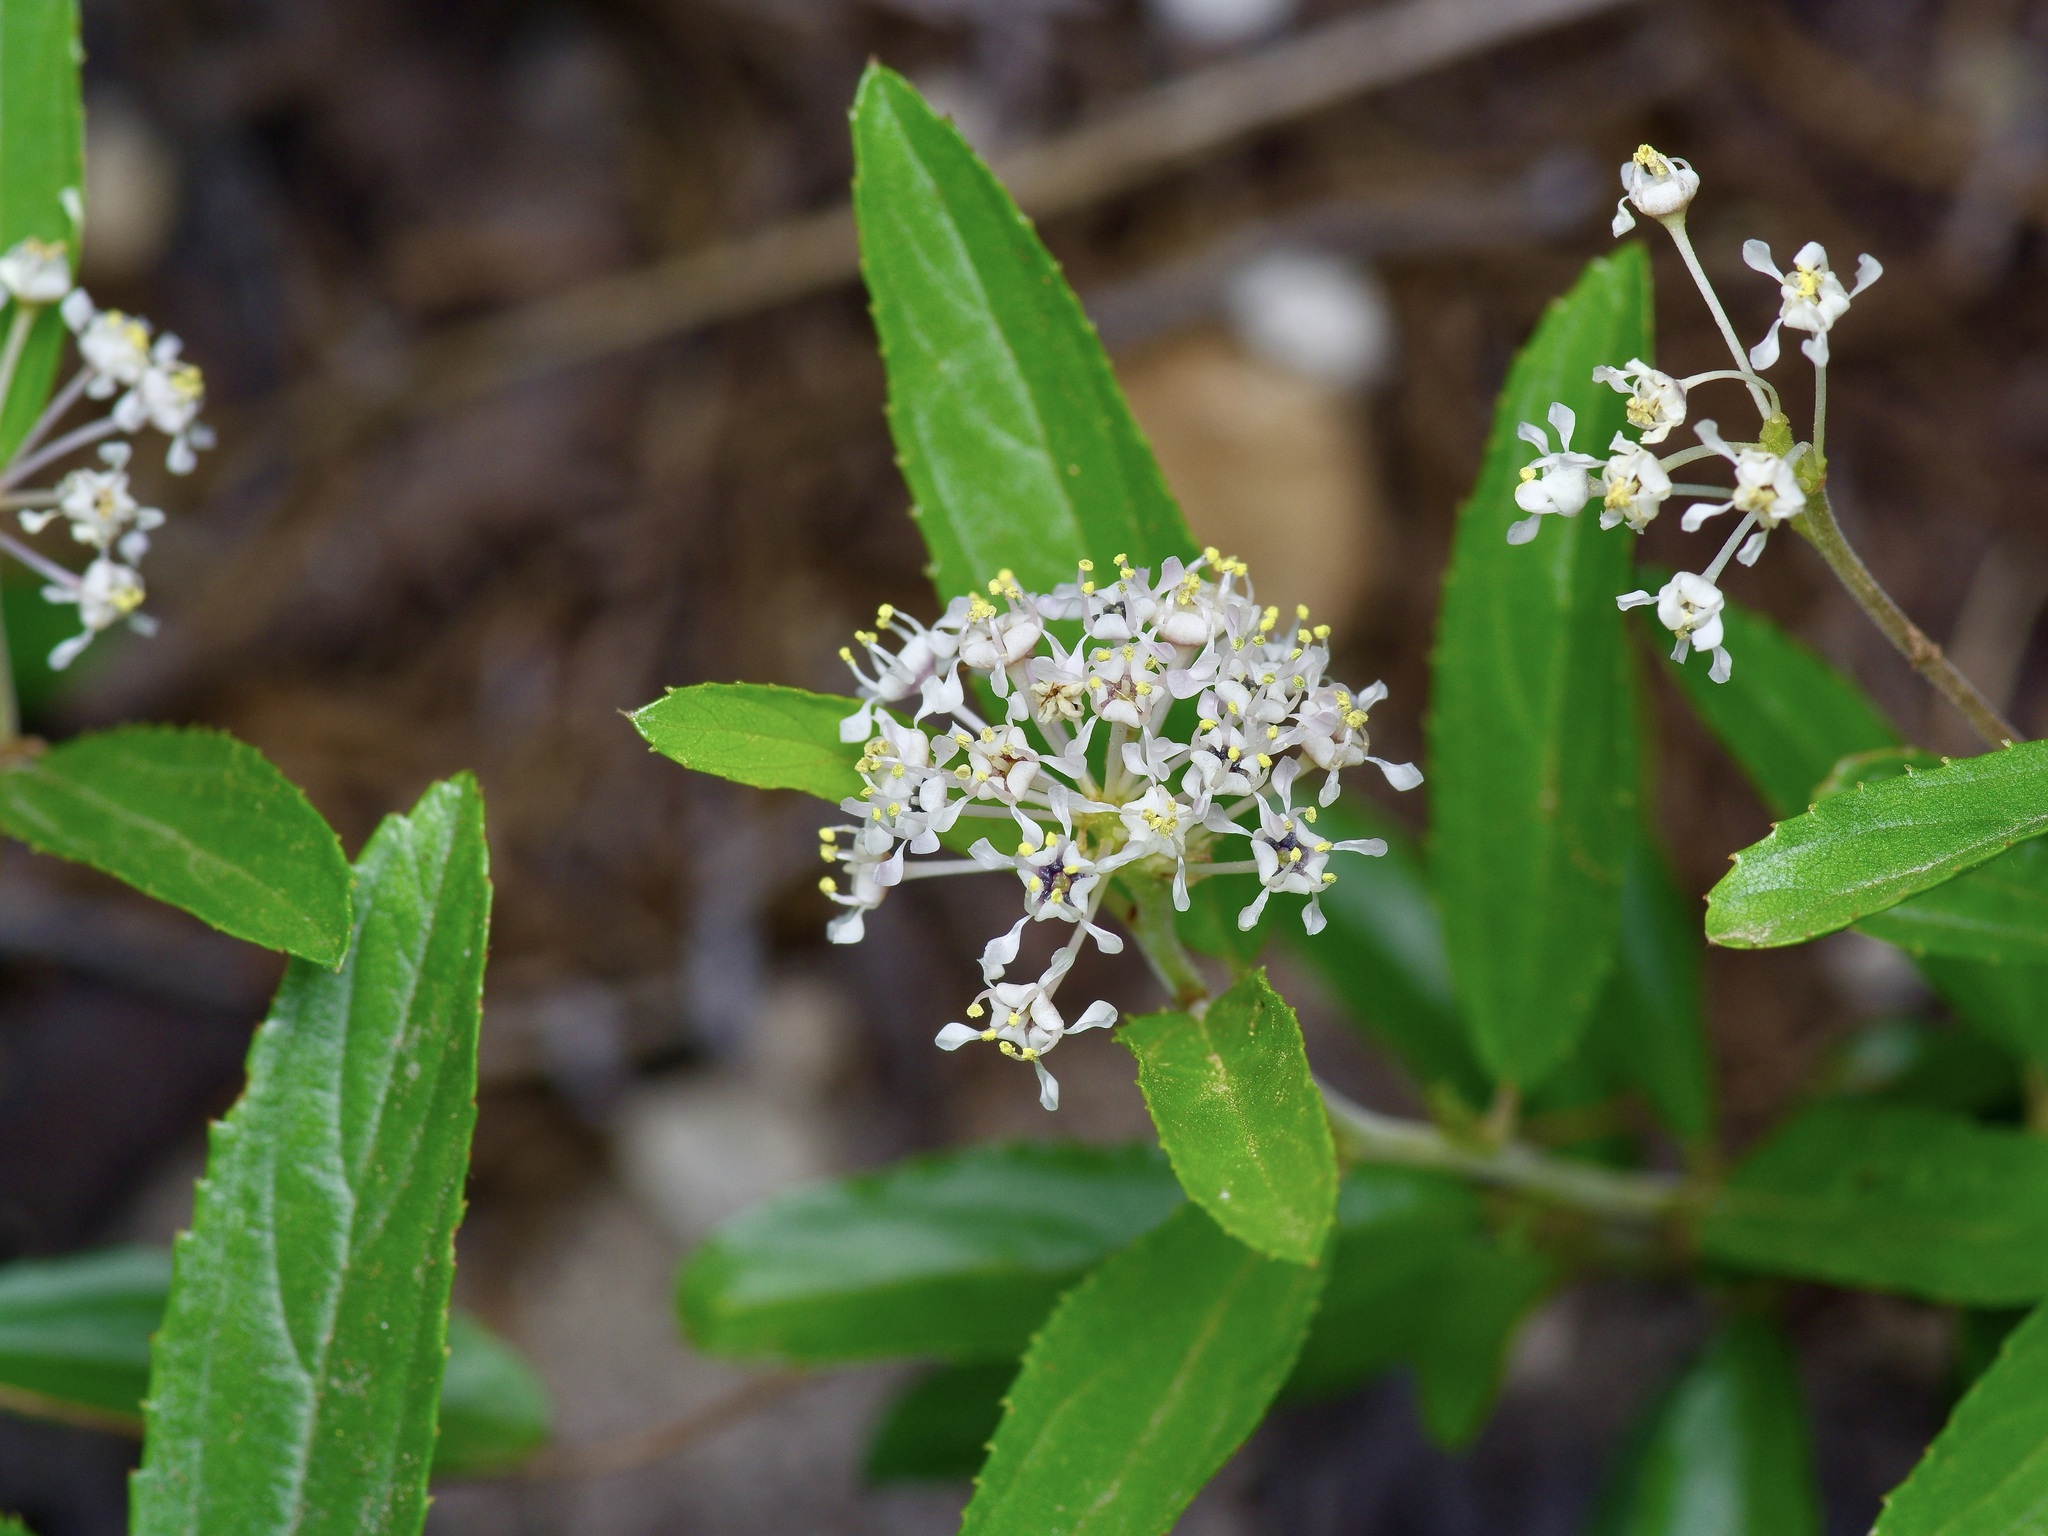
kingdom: Plantae
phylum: Tracheophyta
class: Magnoliopsida
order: Rosales
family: Rhamnaceae
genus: Ceanothus
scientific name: Ceanothus herbaceus
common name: Inland ceanothus
